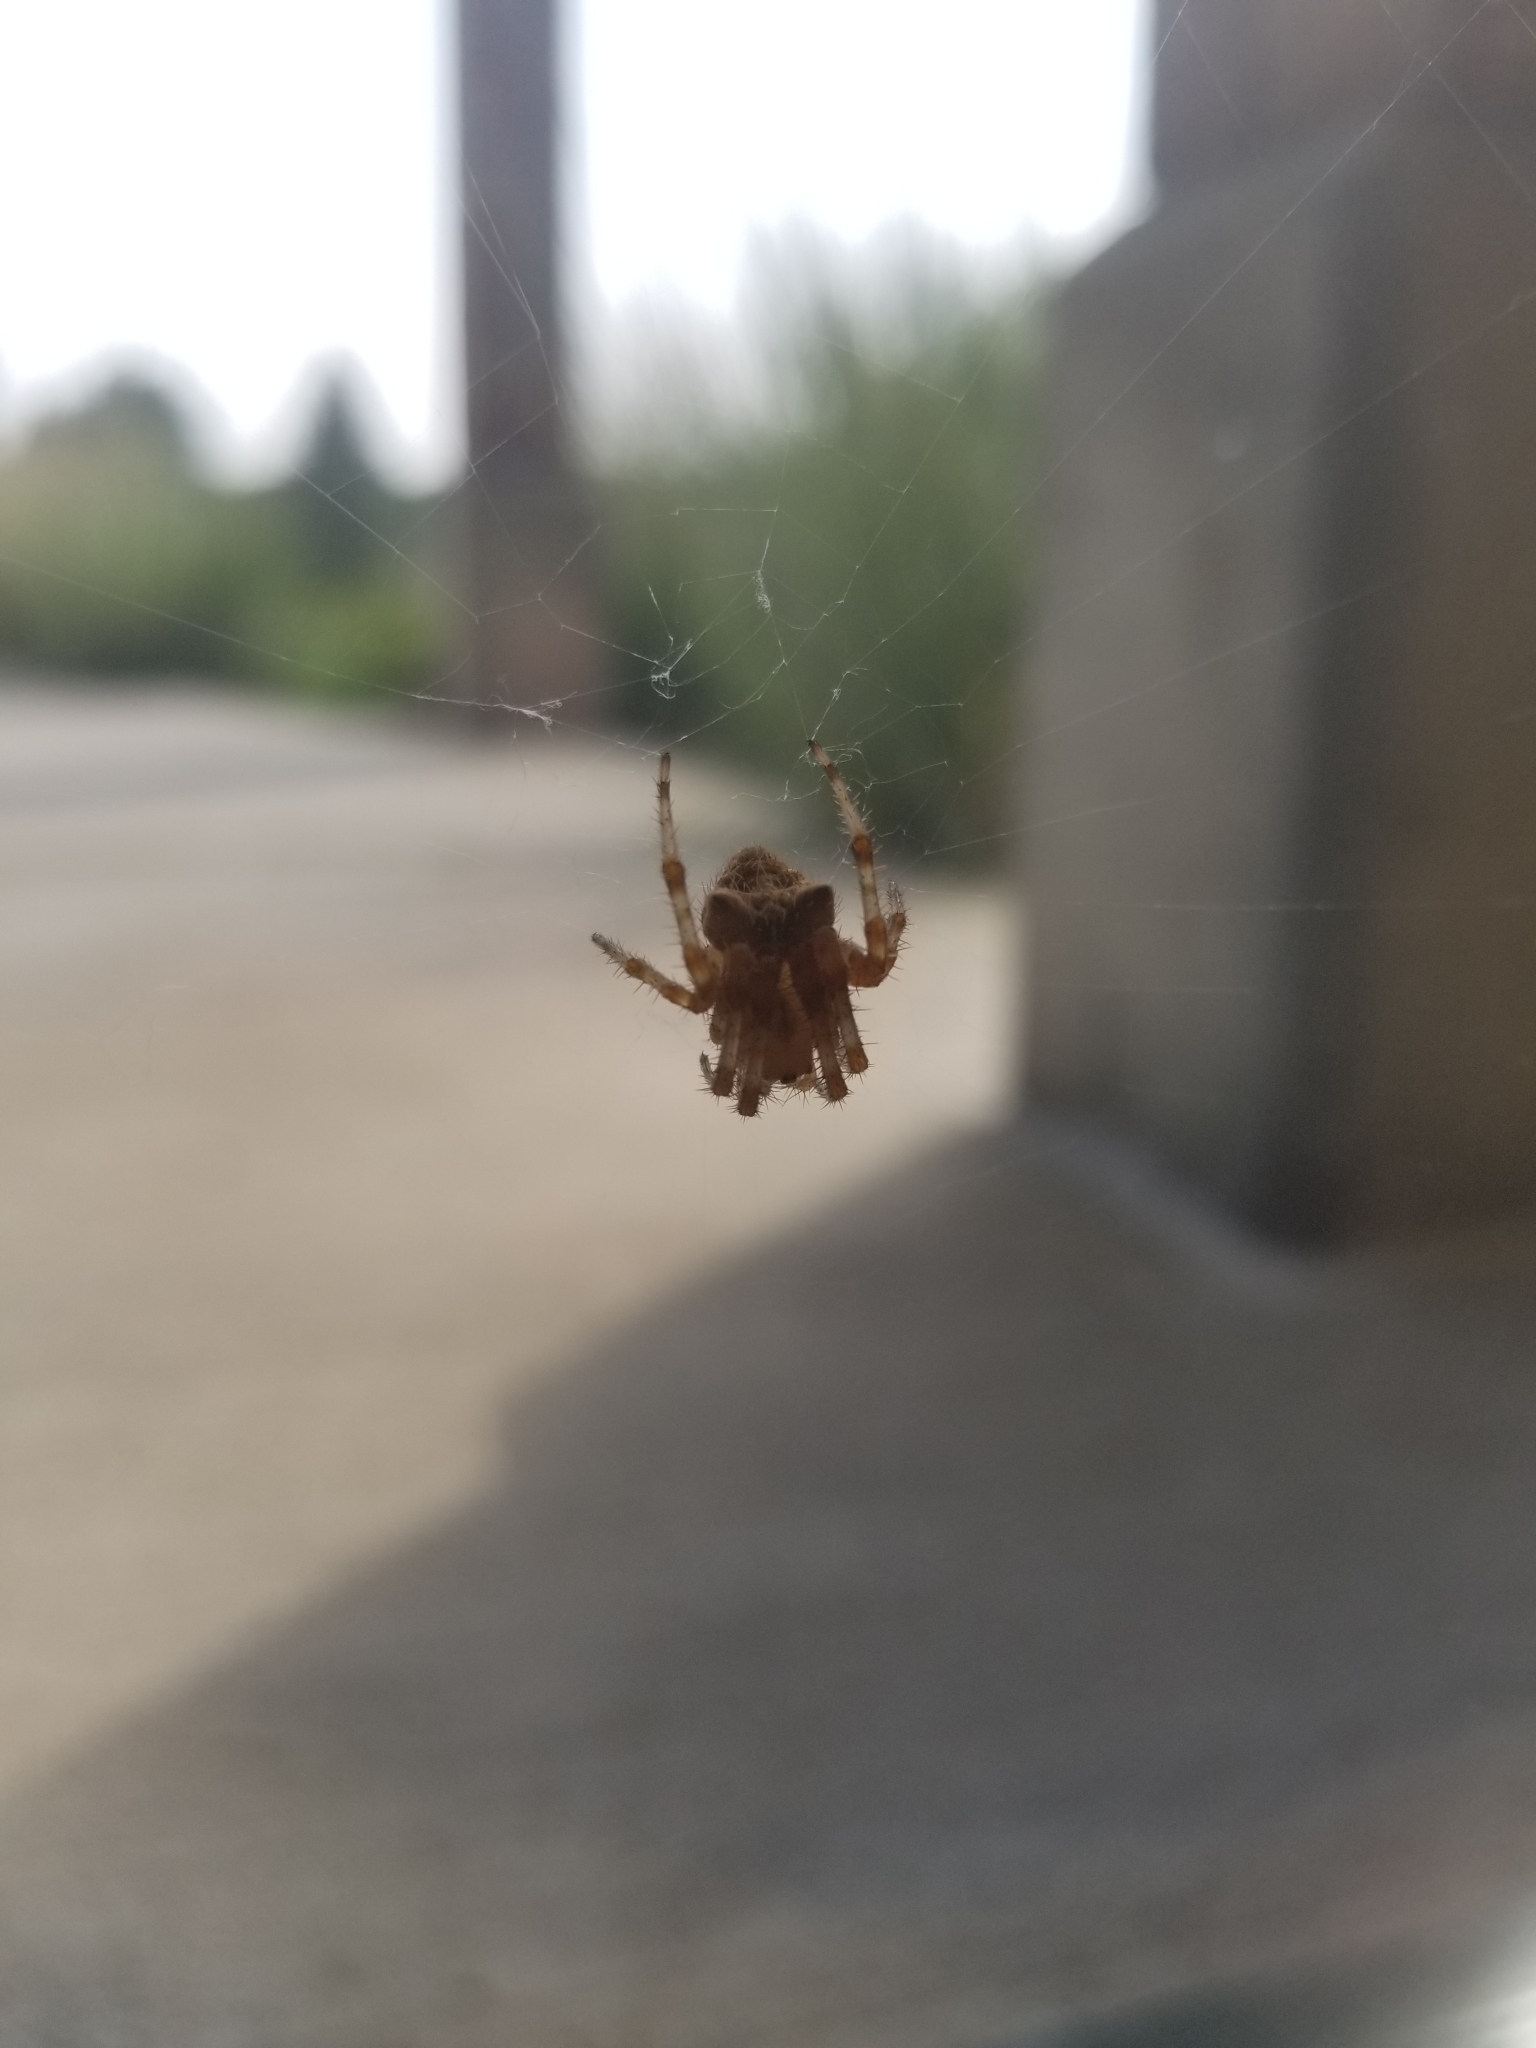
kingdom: Animalia
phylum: Arthropoda
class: Arachnida
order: Araneae
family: Araneidae
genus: Araneus
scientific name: Araneus gemmoides
